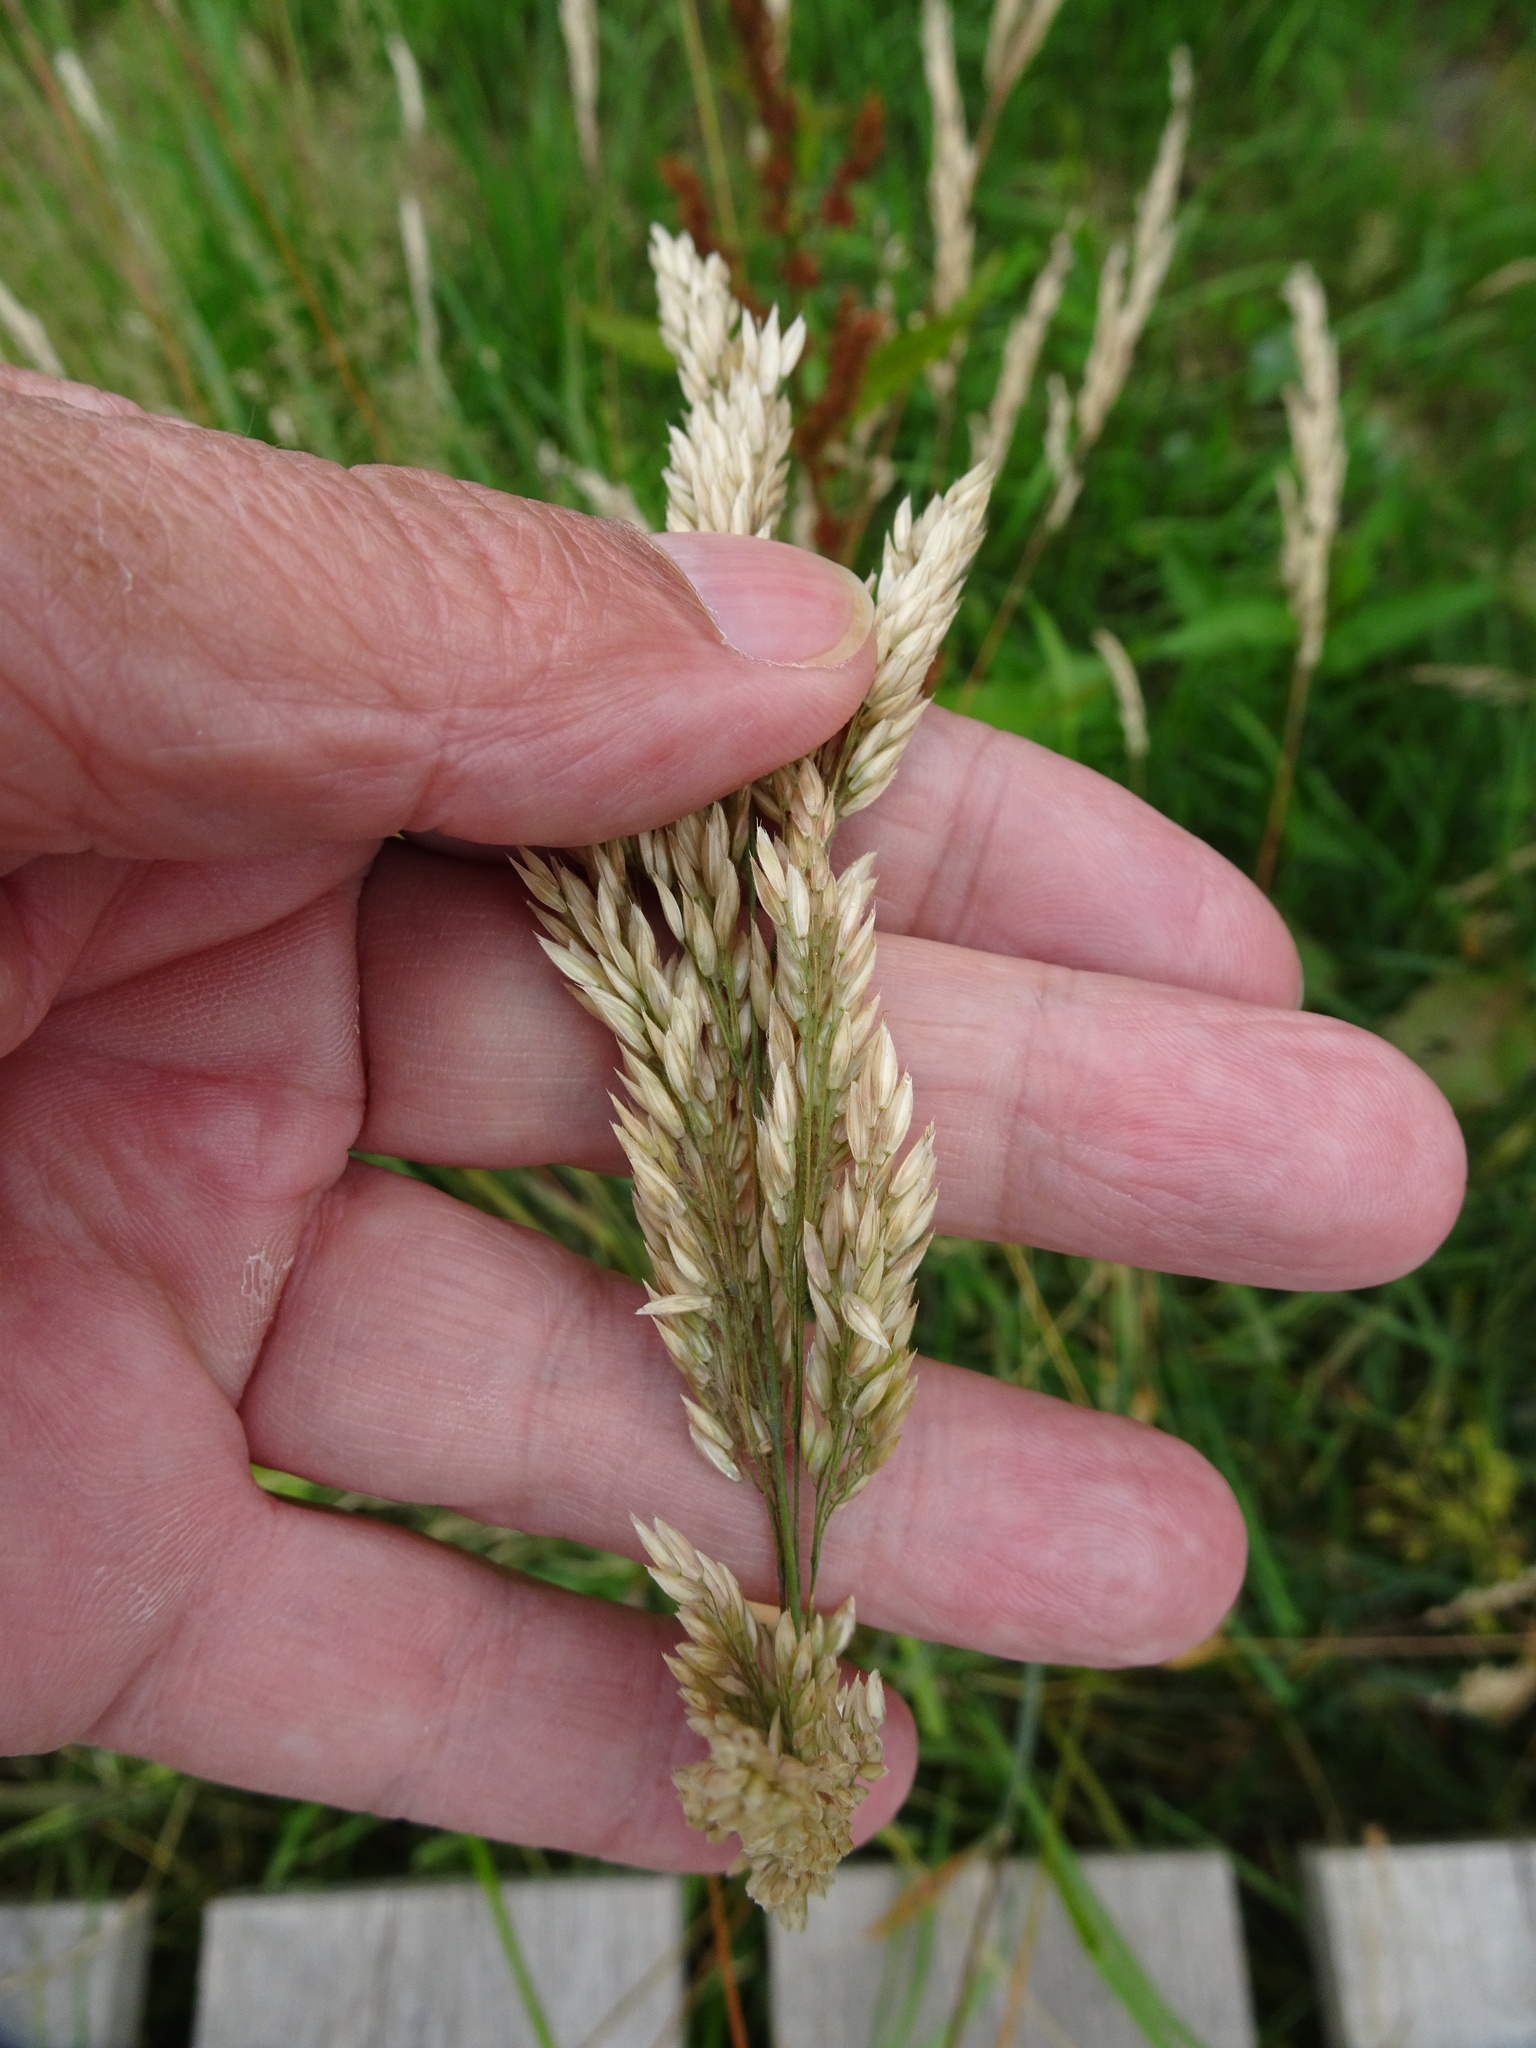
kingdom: Plantae
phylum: Tracheophyta
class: Liliopsida
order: Poales
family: Poaceae
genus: Holcus
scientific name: Holcus lanatus
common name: Yorkshire-fog
